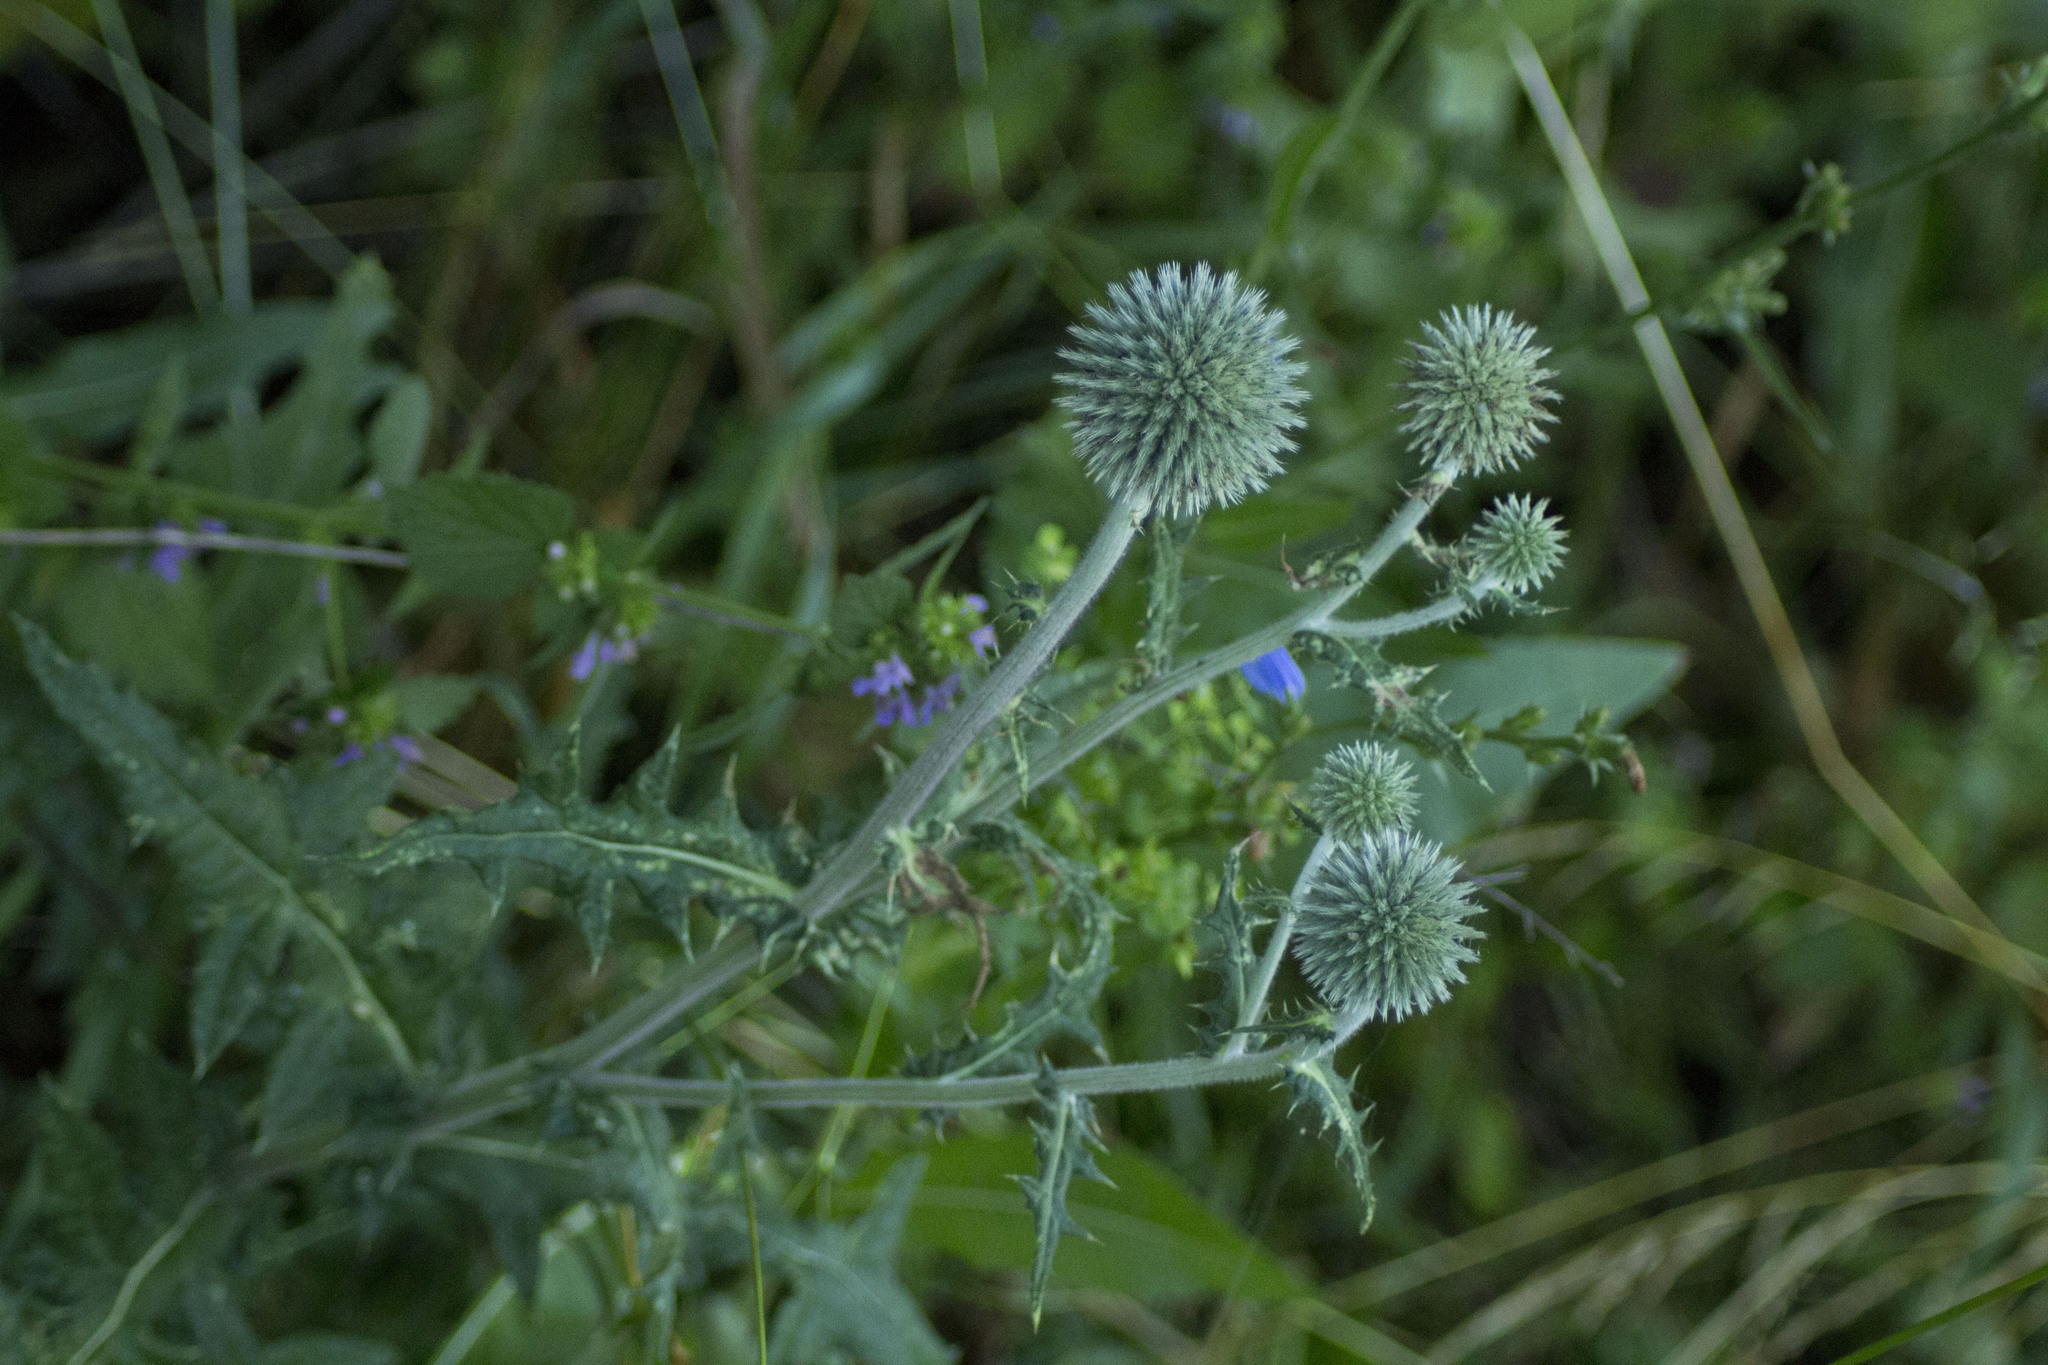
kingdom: Plantae
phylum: Tracheophyta
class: Magnoliopsida
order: Asterales
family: Asteraceae
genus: Echinops
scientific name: Echinops sphaerocephalus
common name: Glandular globe-thistle
